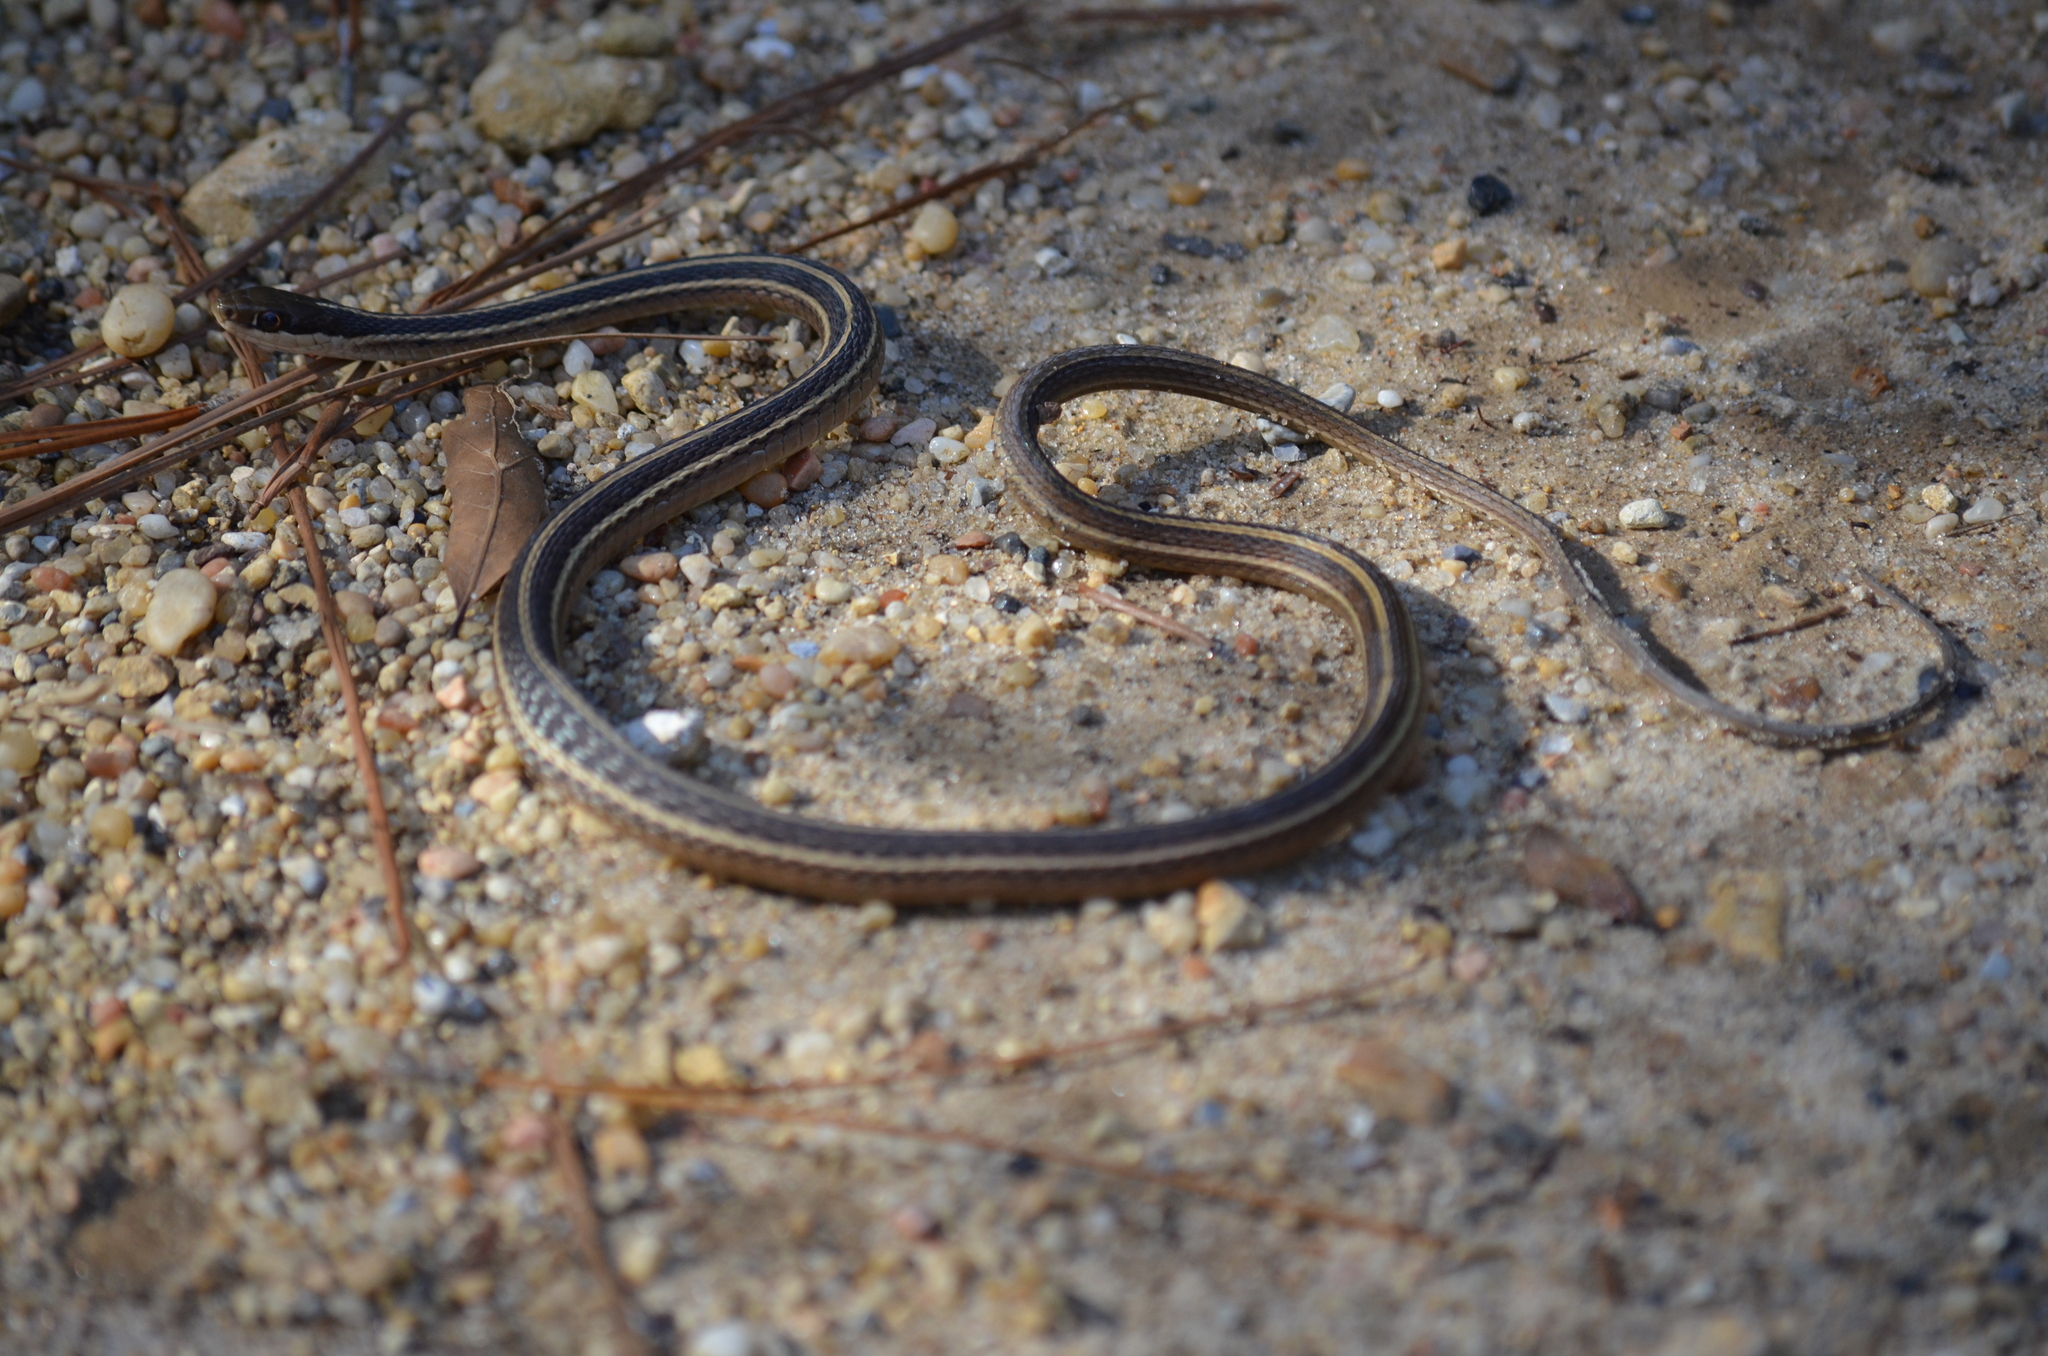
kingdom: Animalia
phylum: Chordata
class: Squamata
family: Colubridae
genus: Thamnophis
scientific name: Thamnophis saurita
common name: Eastern ribbonsnake
